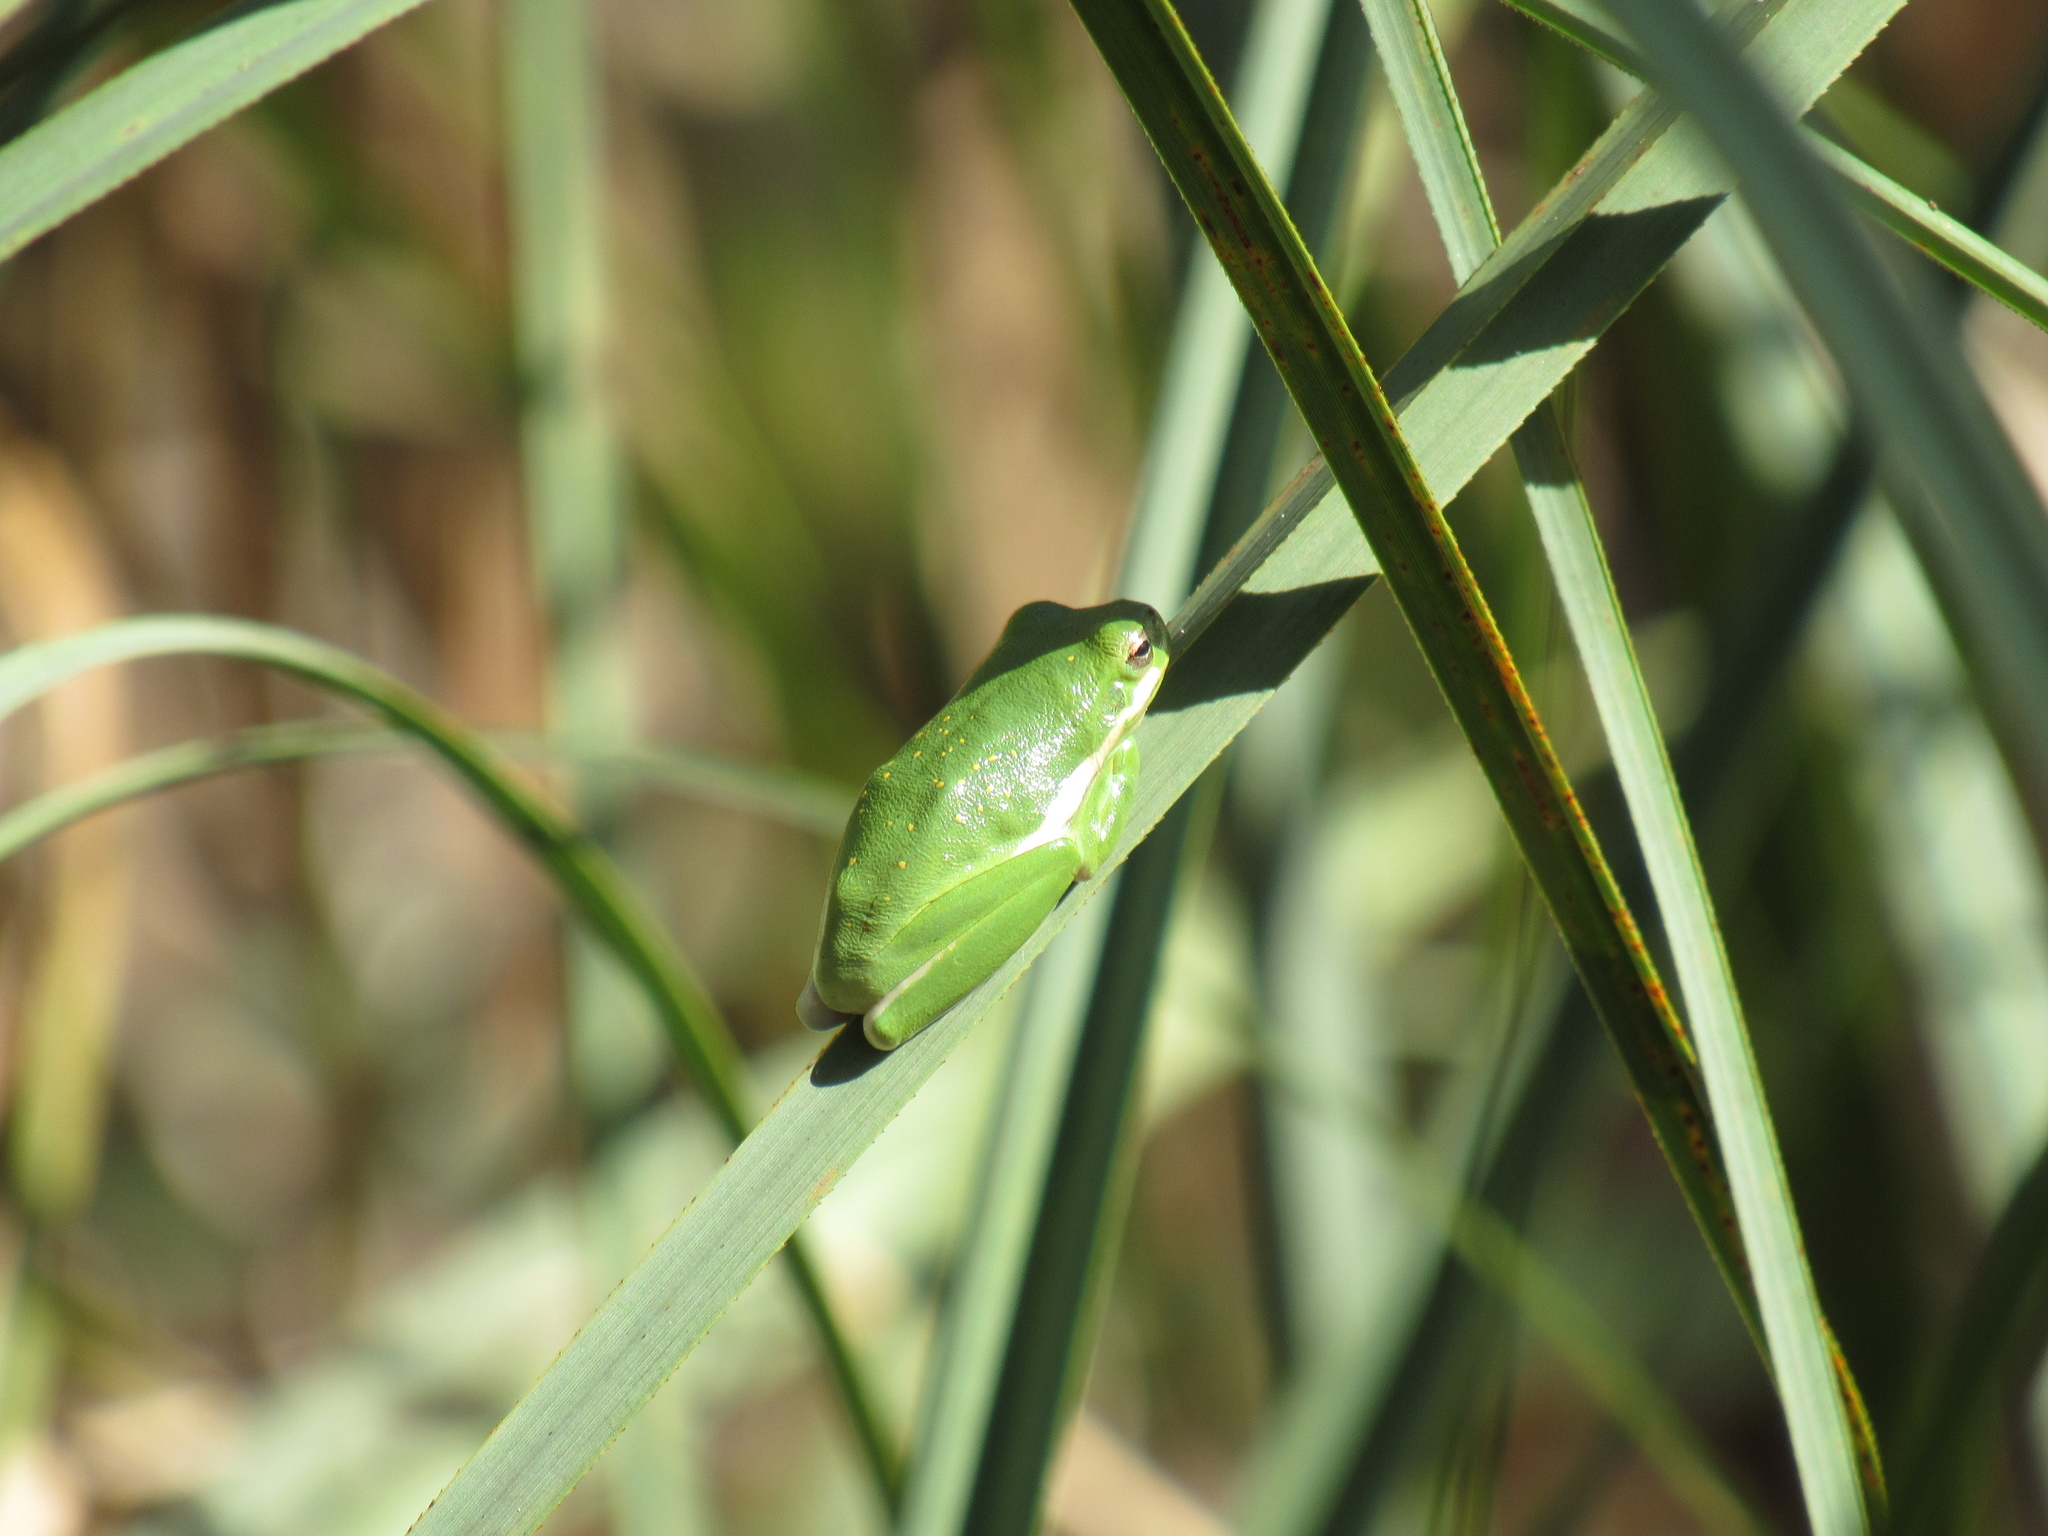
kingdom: Animalia
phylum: Chordata
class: Amphibia
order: Anura
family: Hylidae
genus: Dryophytes
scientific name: Dryophytes cinereus
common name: Green treefrog
